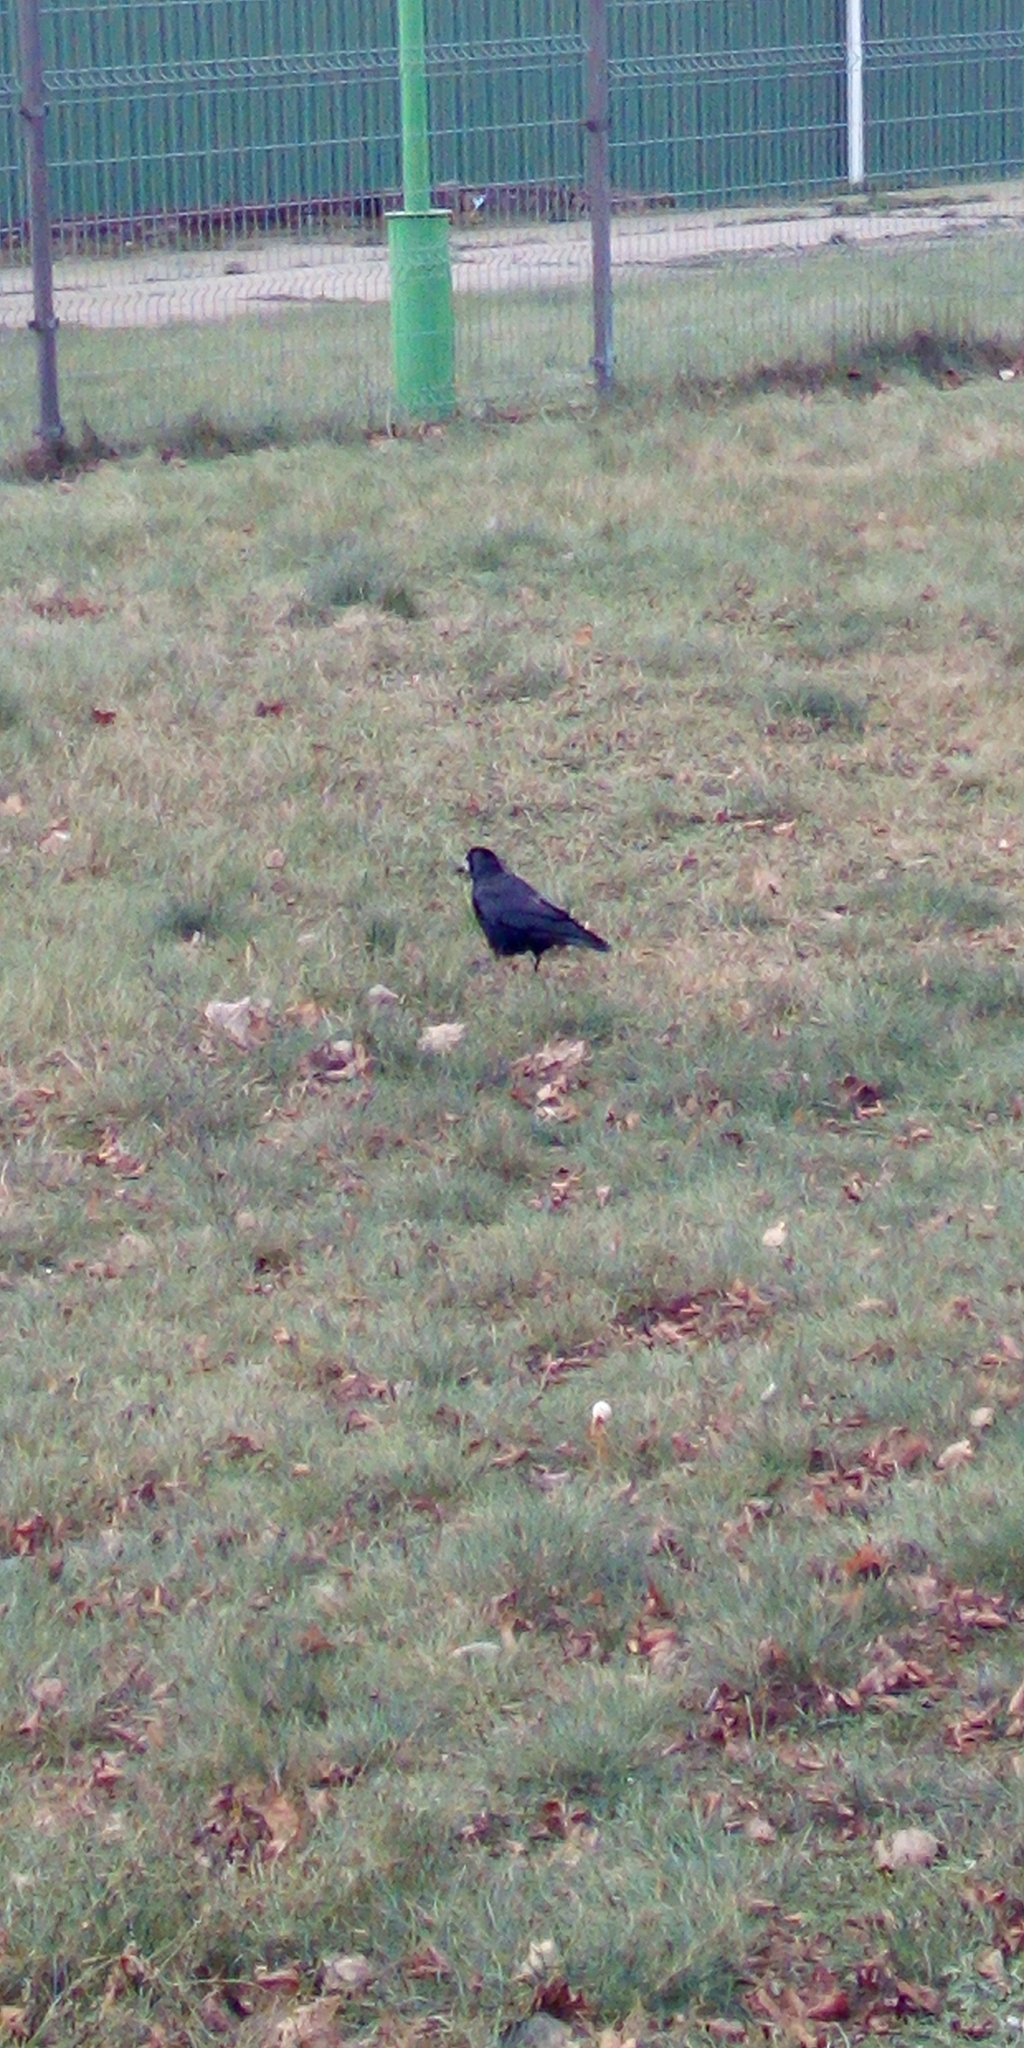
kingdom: Animalia
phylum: Chordata
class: Aves
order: Passeriformes
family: Corvidae
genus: Corvus
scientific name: Corvus frugilegus
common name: Rook
